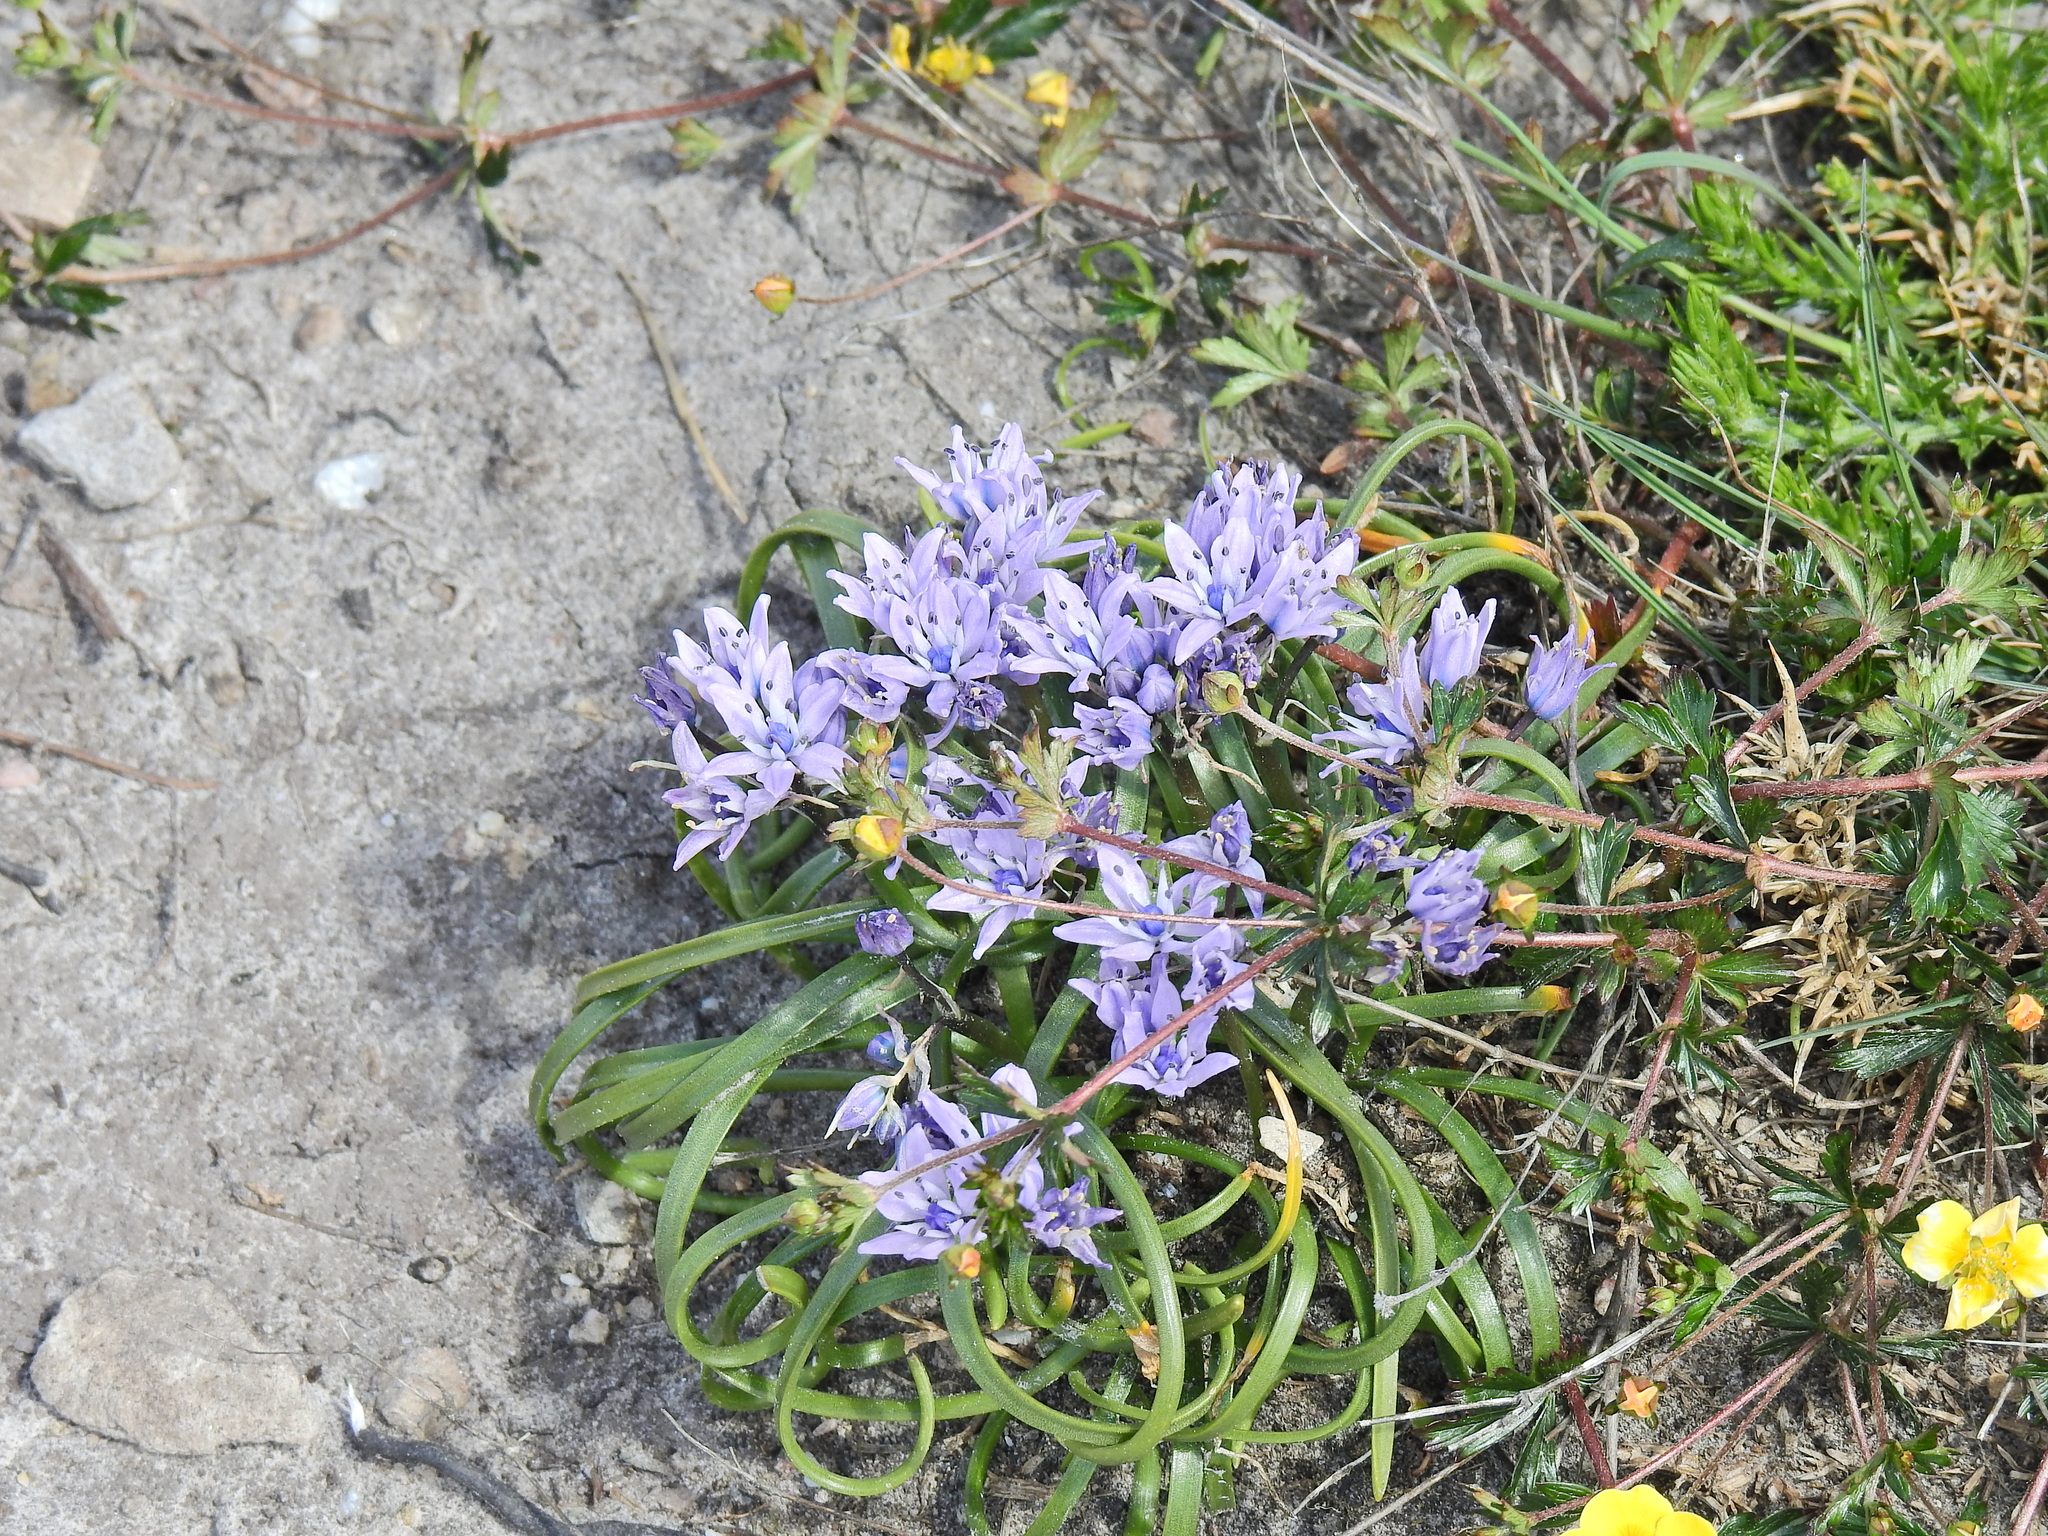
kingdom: Plantae
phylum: Tracheophyta
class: Liliopsida
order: Asparagales
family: Asparagaceae
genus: Scilla
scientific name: Scilla verna
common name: Spring squill
